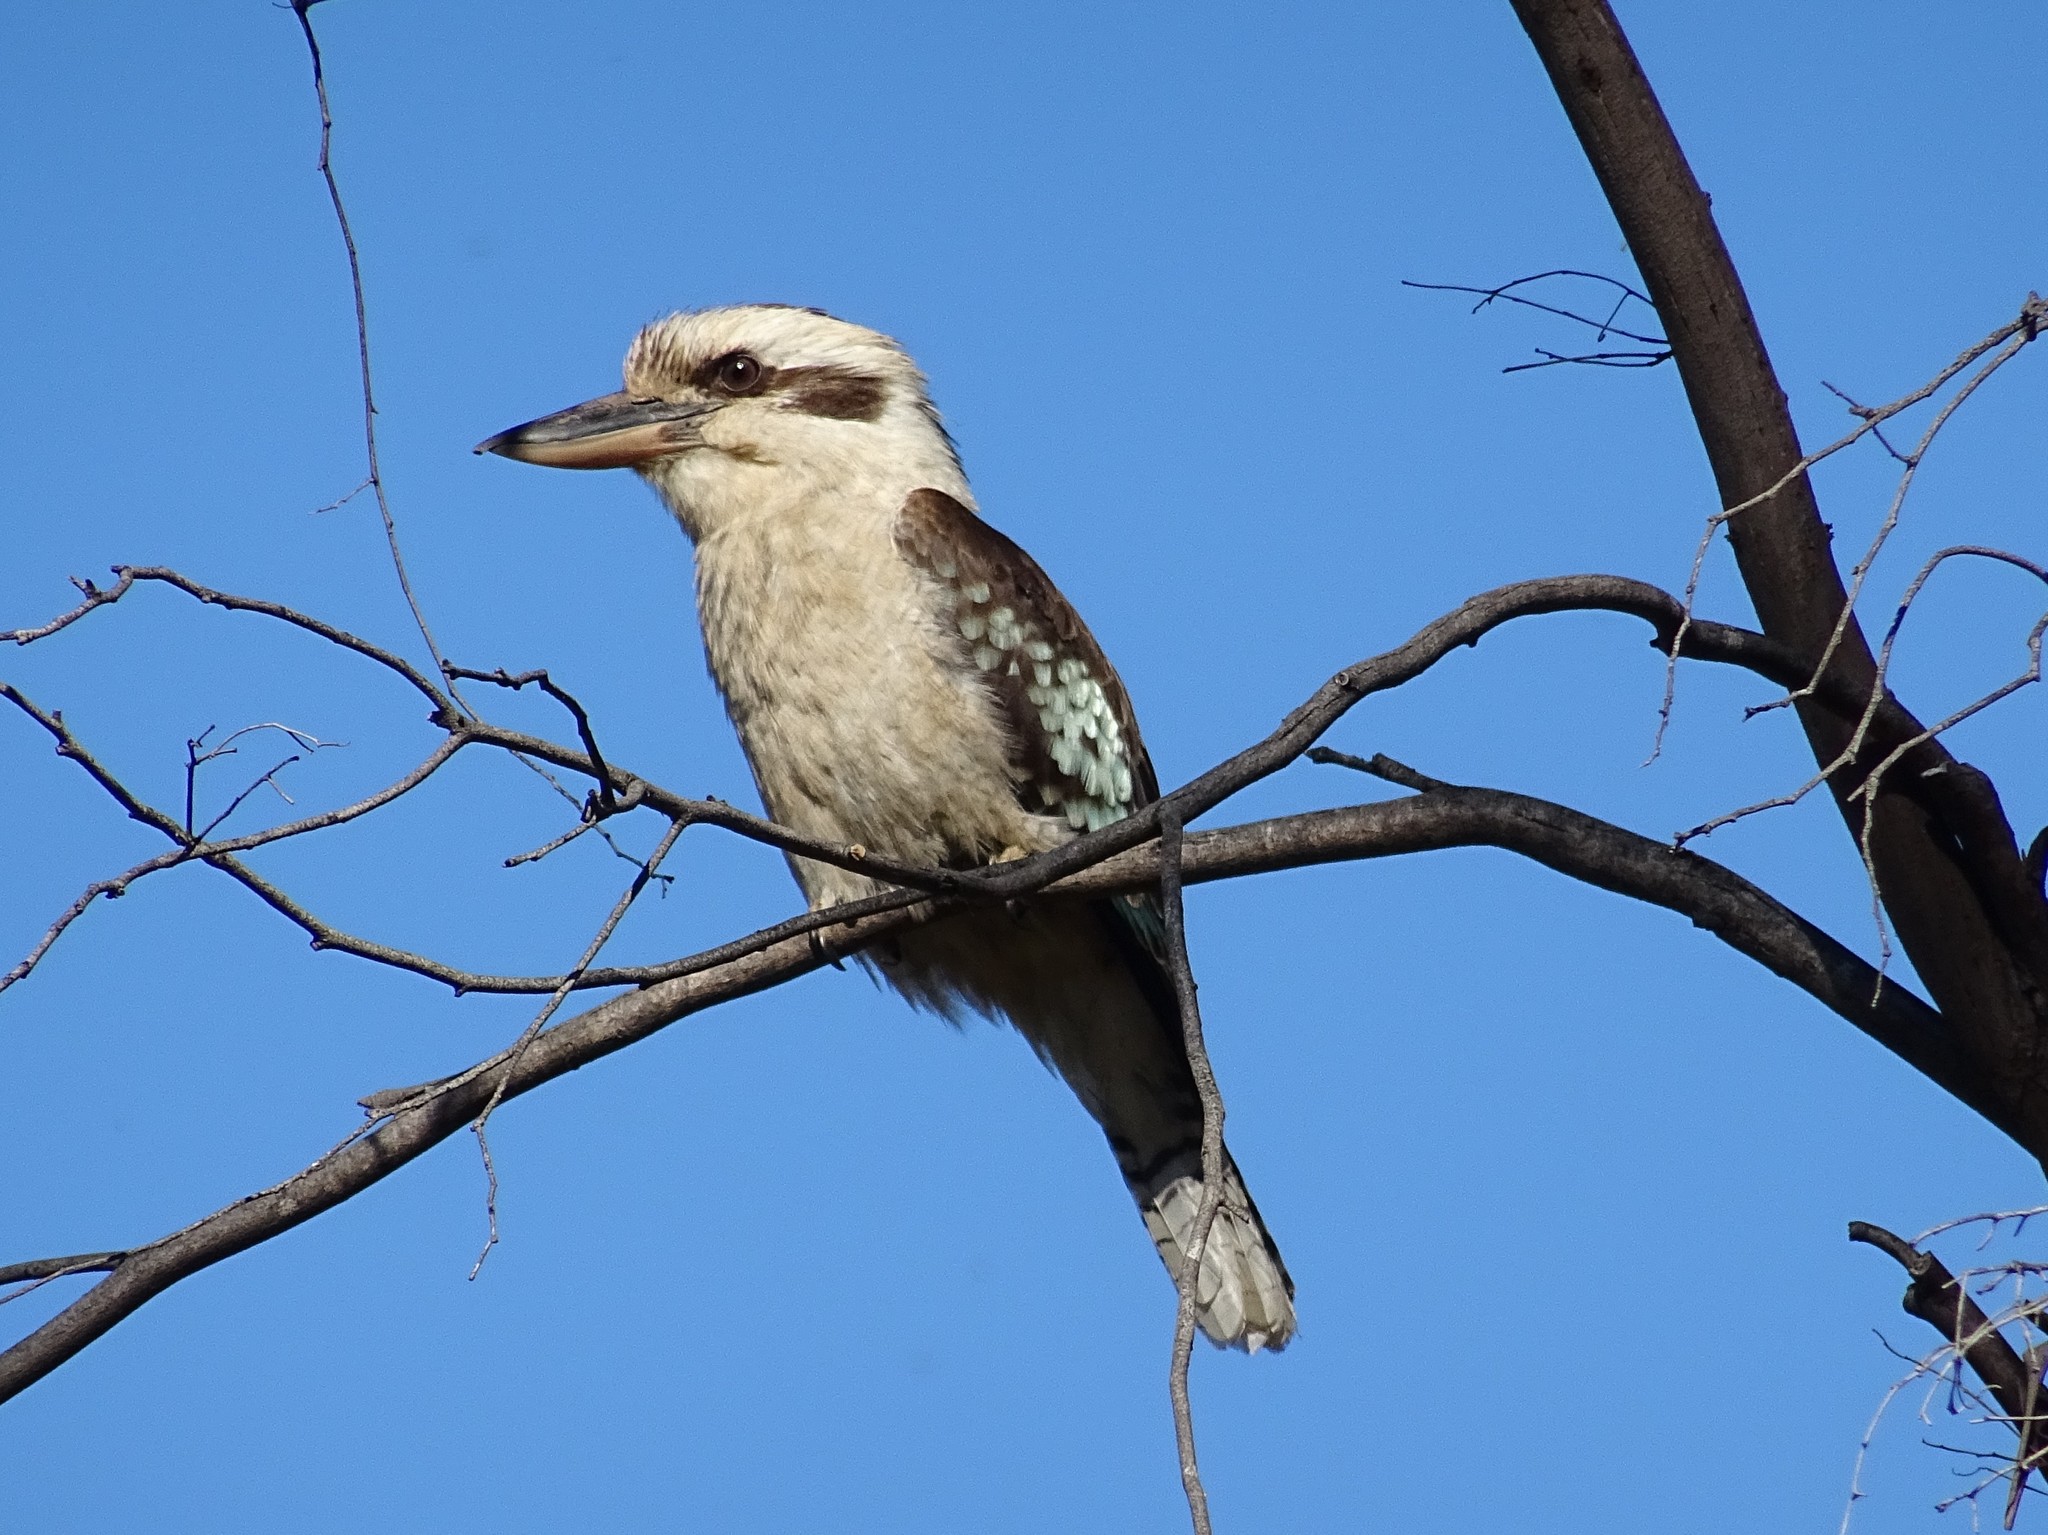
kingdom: Animalia
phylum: Chordata
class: Aves
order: Coraciiformes
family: Alcedinidae
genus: Dacelo
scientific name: Dacelo novaeguineae
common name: Laughing kookaburra
